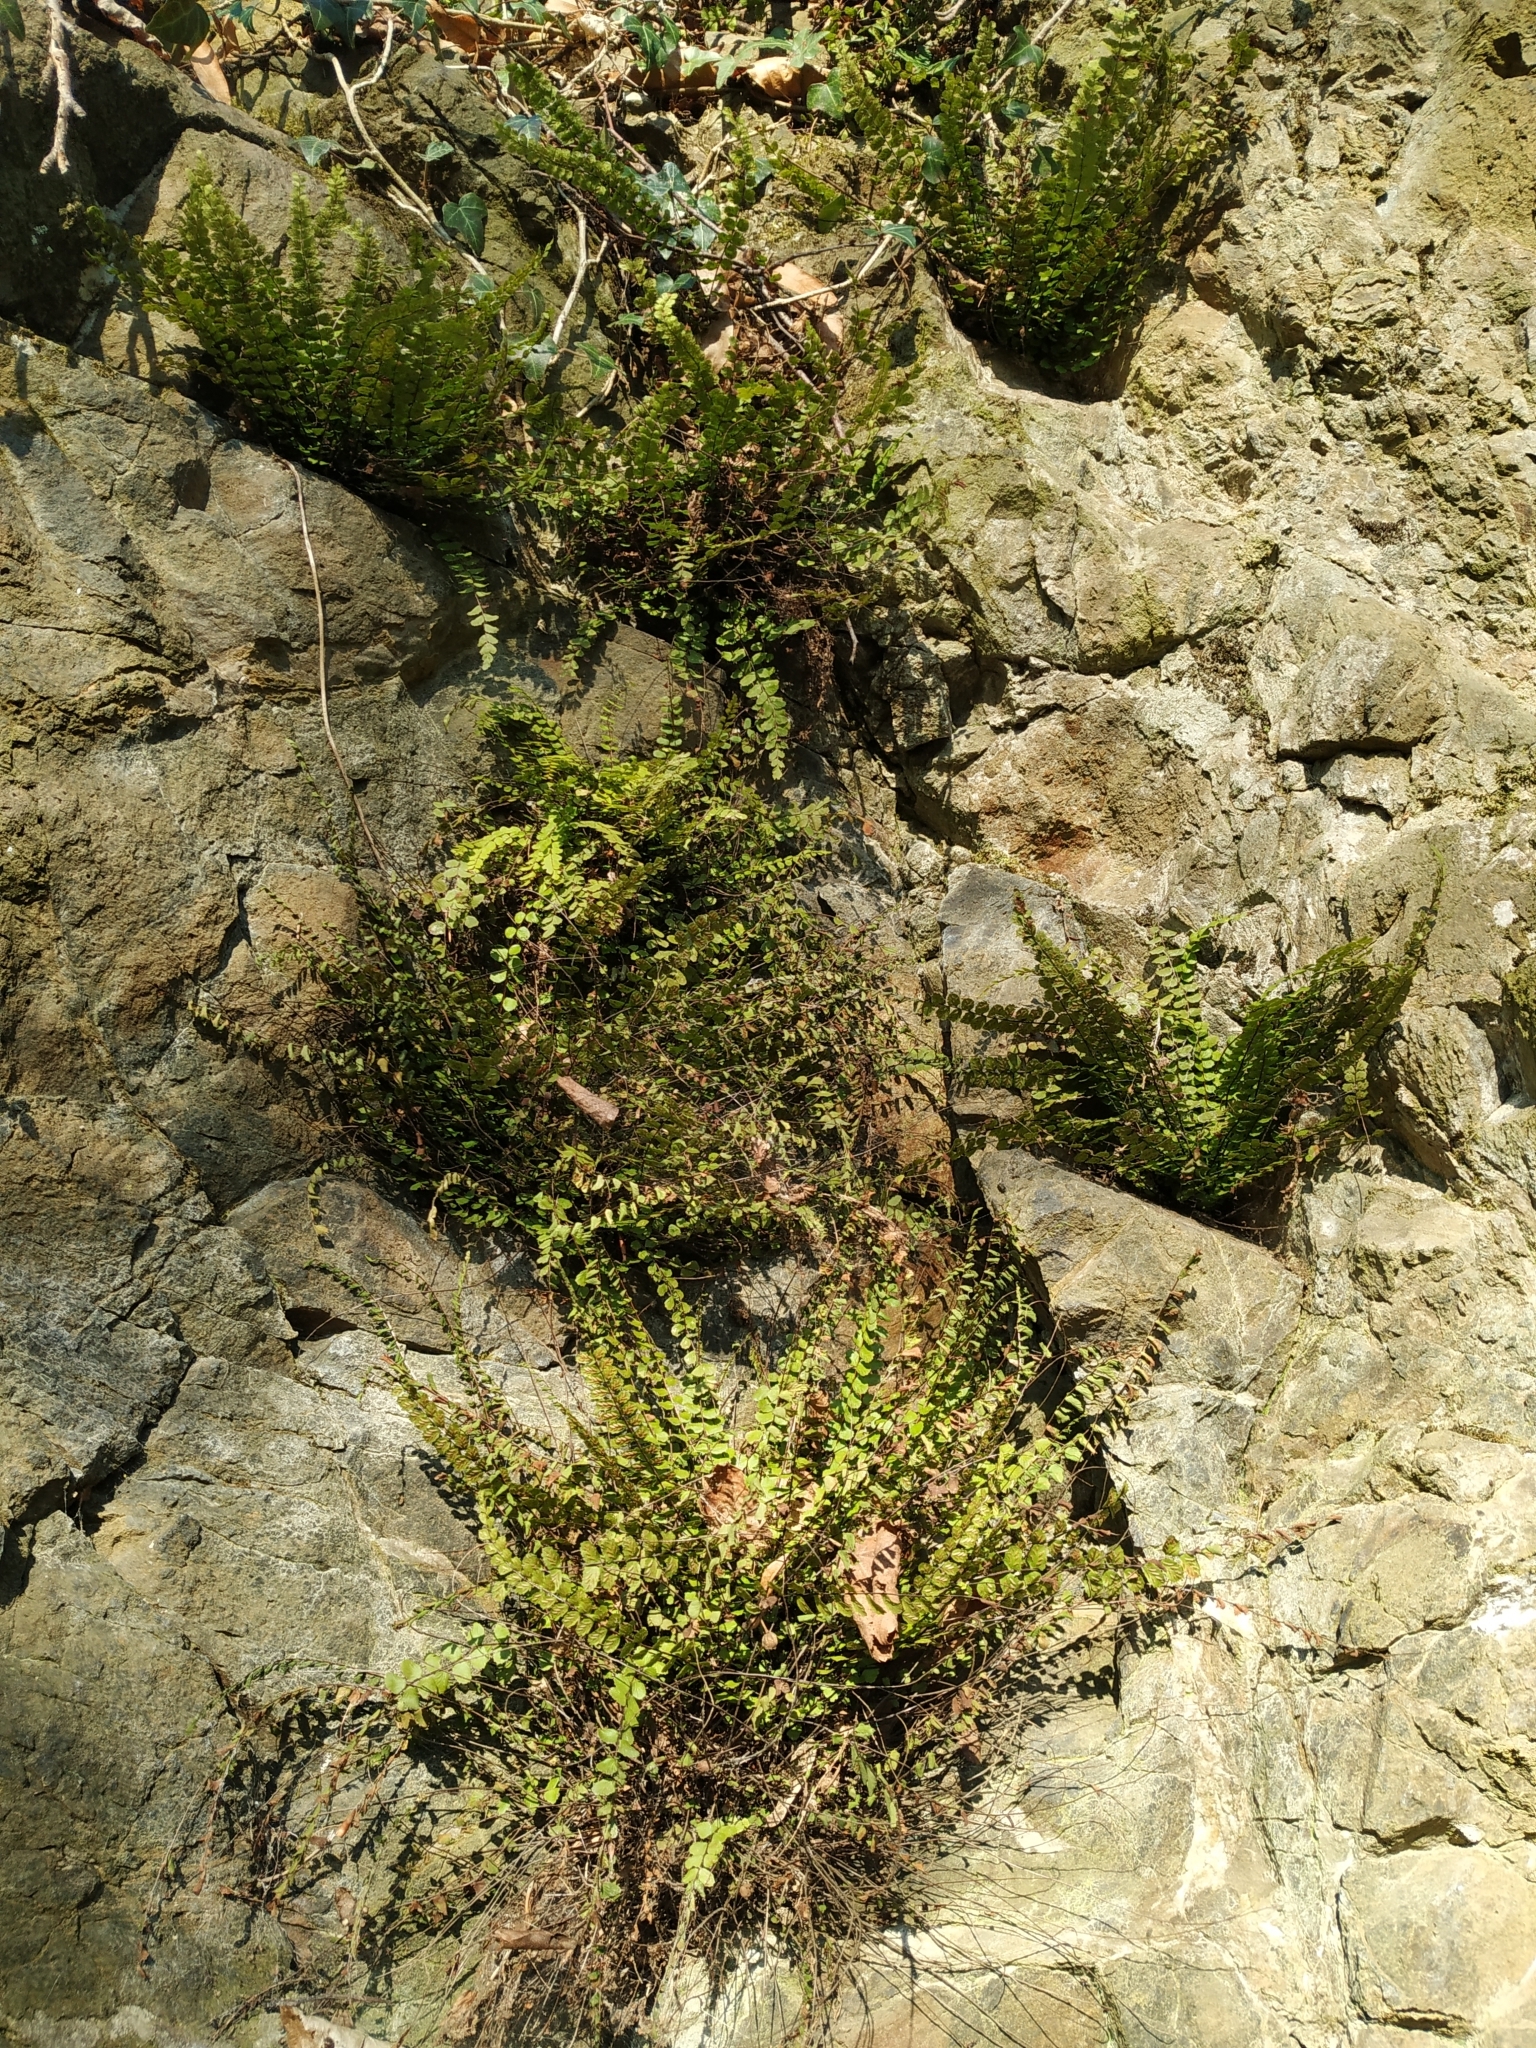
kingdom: Plantae
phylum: Tracheophyta
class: Polypodiopsida
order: Polypodiales
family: Aspleniaceae
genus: Asplenium
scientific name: Asplenium trichomanes
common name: Maidenhair spleenwort
